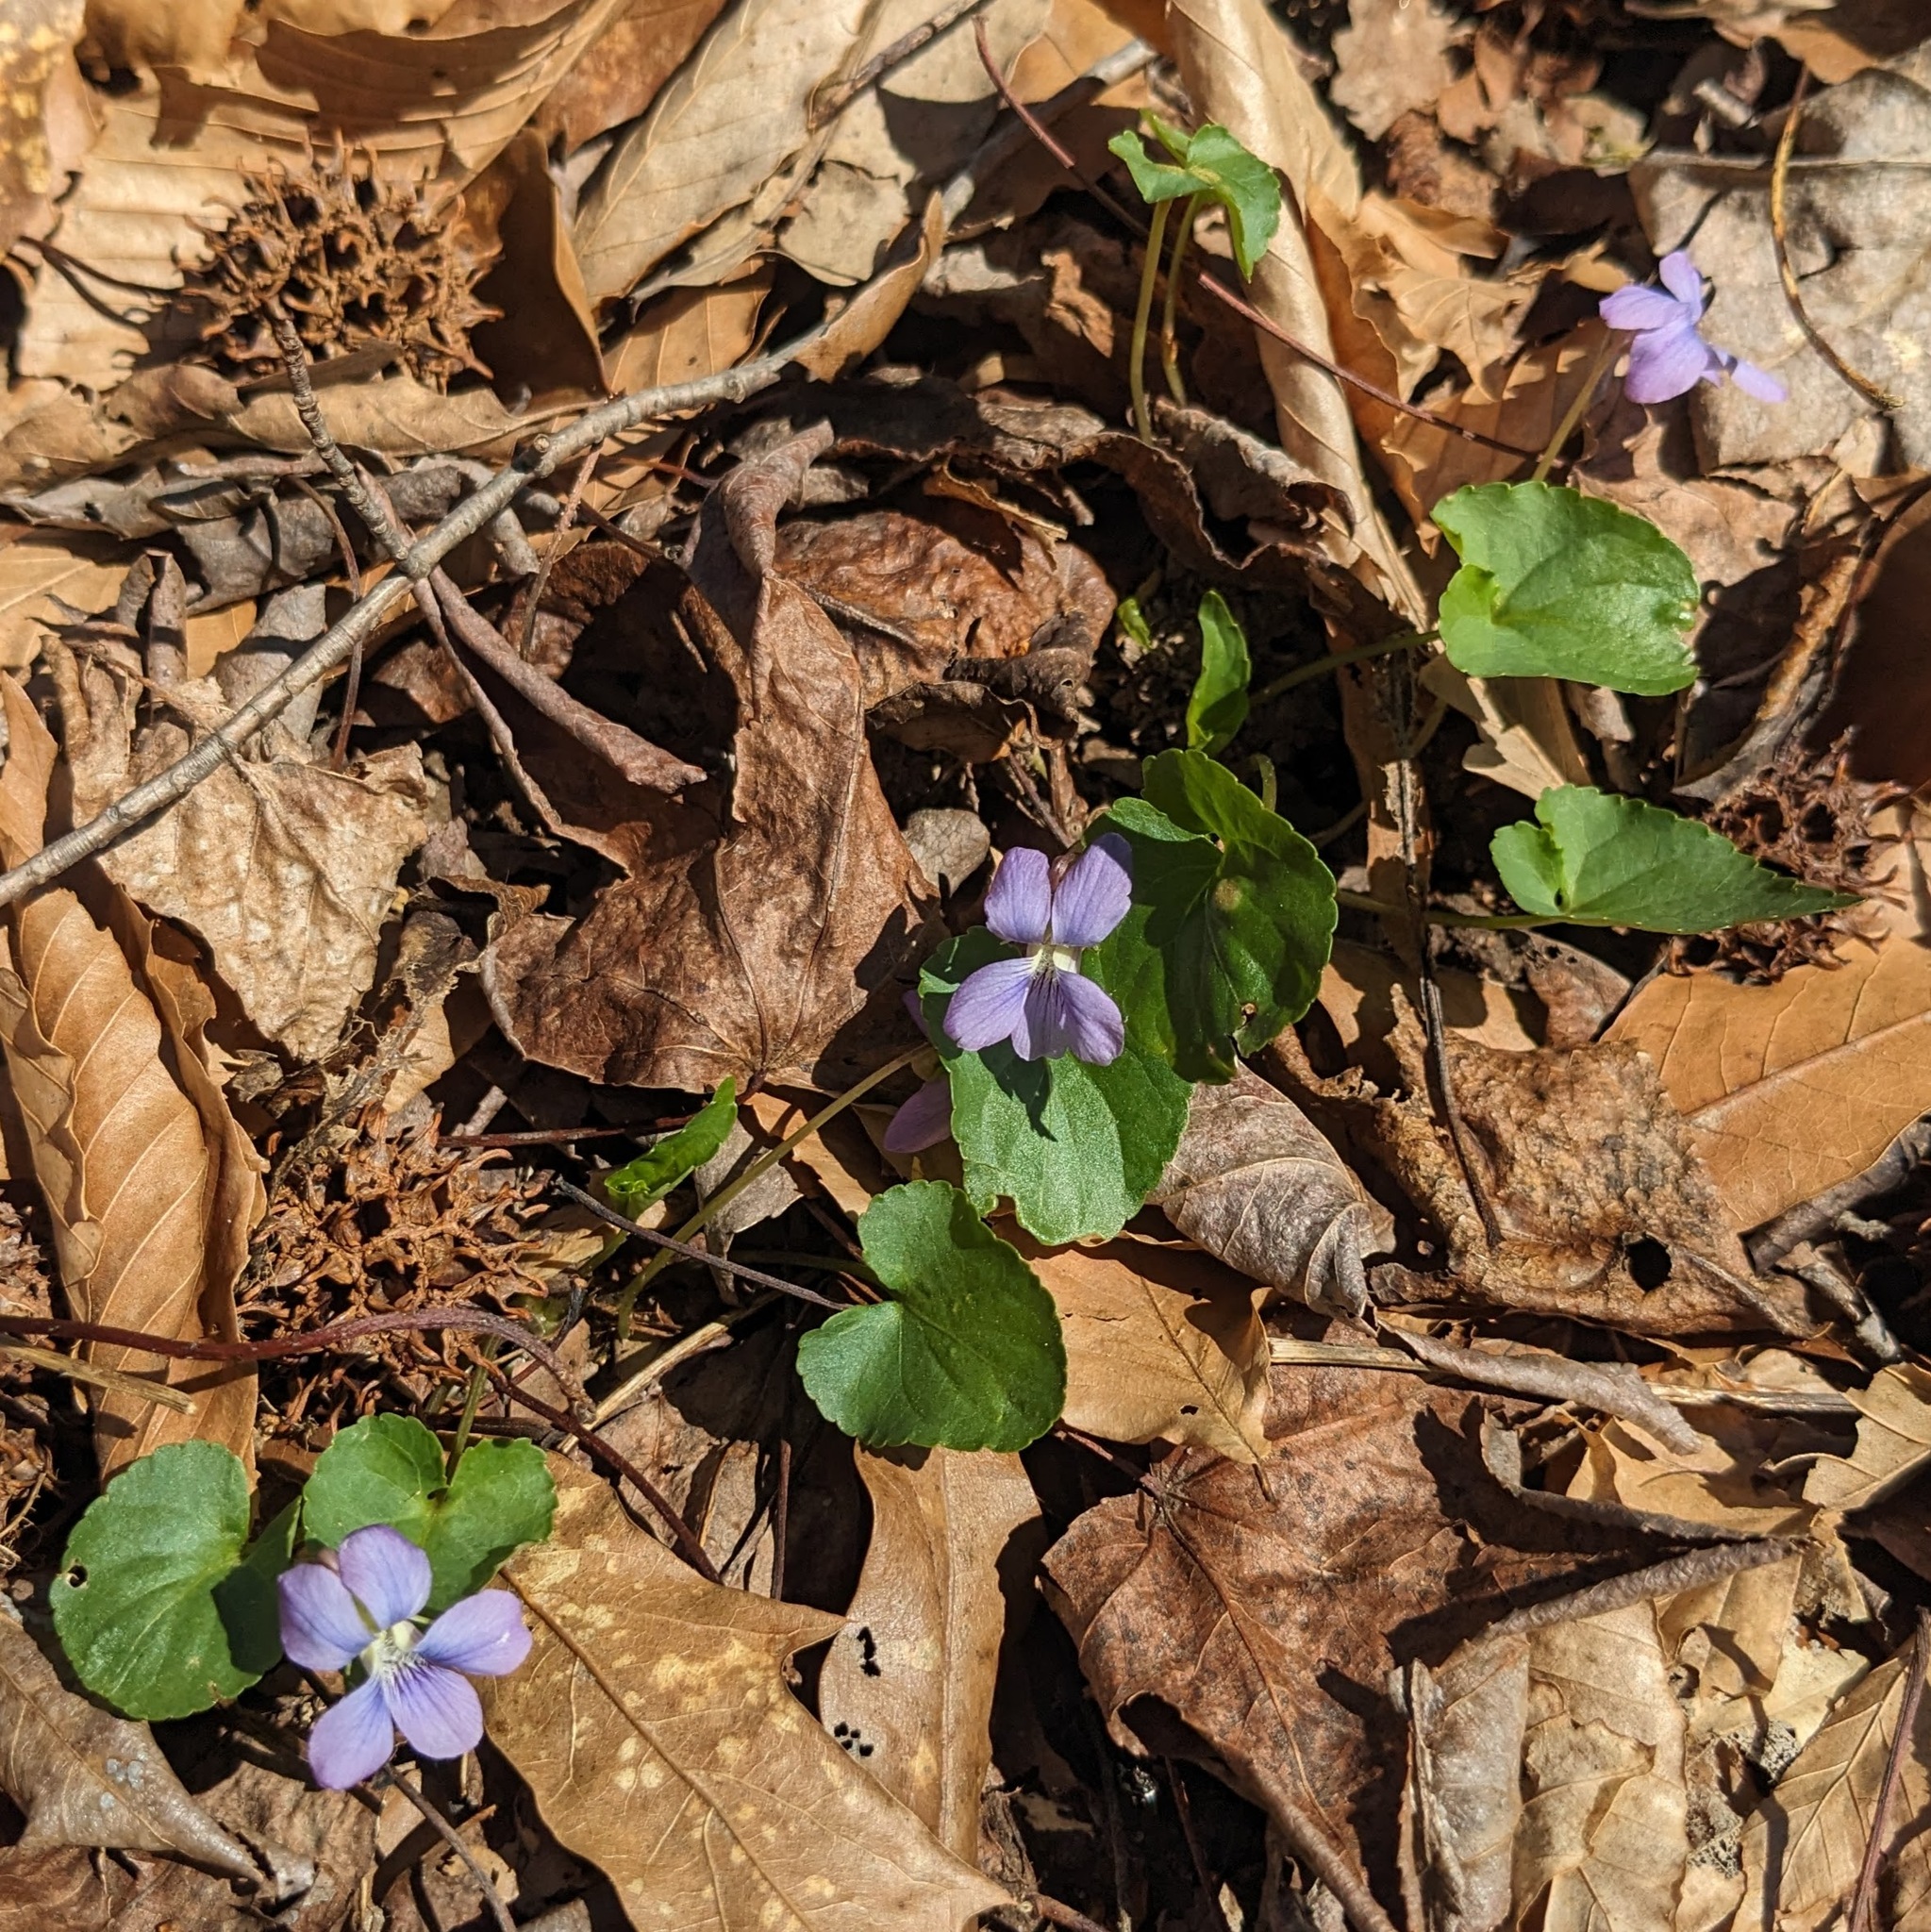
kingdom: Plantae
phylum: Tracheophyta
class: Magnoliopsida
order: Malpighiales
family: Violaceae
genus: Viola
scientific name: Viola sororia
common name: Dooryard violet
